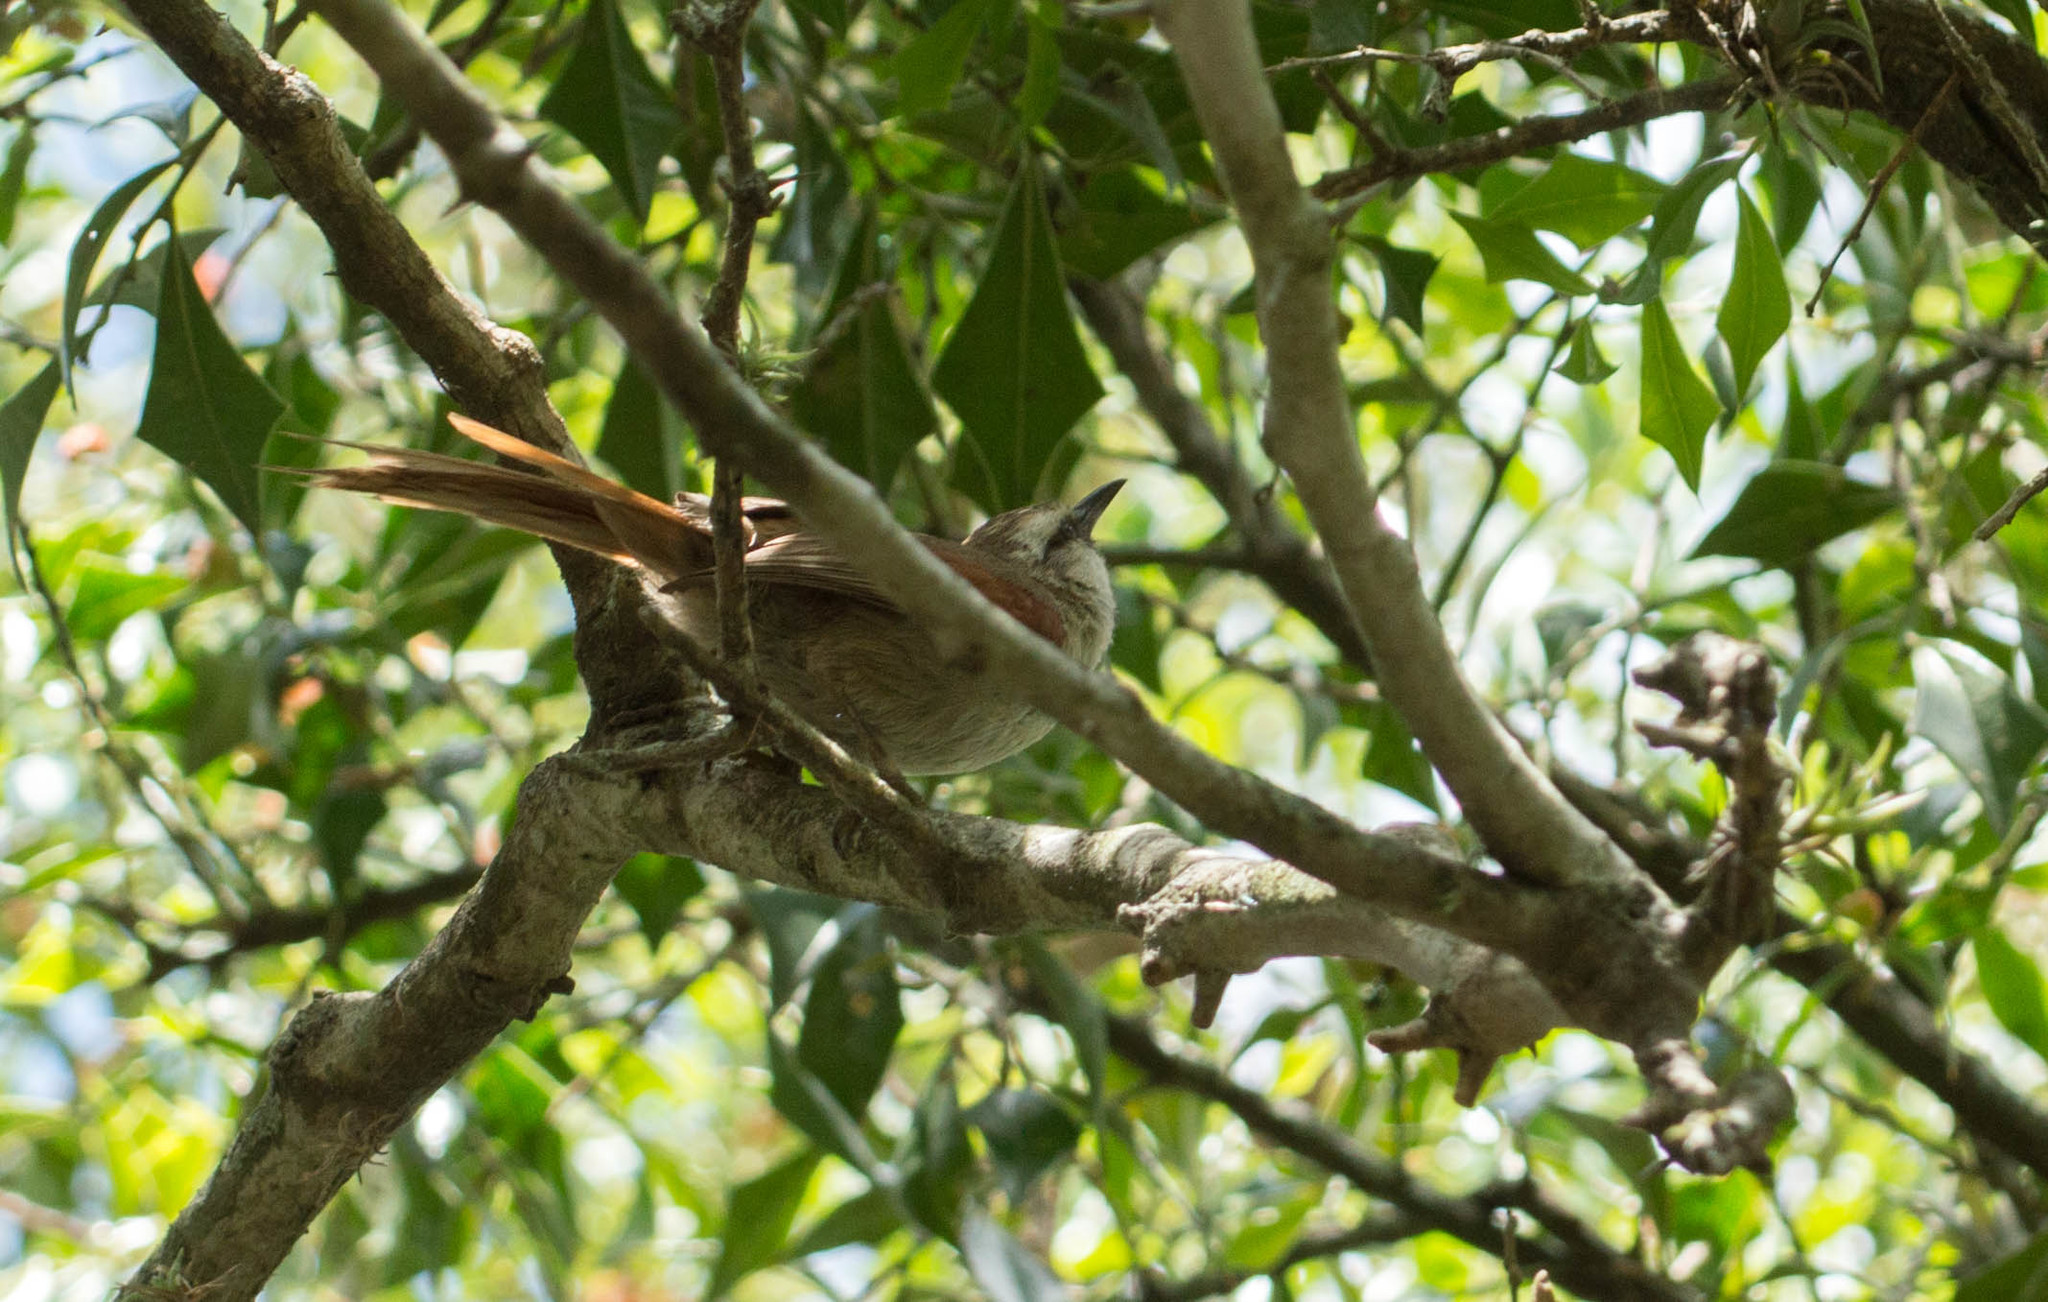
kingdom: Animalia
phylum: Chordata
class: Aves
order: Passeriformes
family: Furnariidae
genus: Cranioleuca
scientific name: Cranioleuca pyrrhophia
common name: Stripe-crowned spinetail
